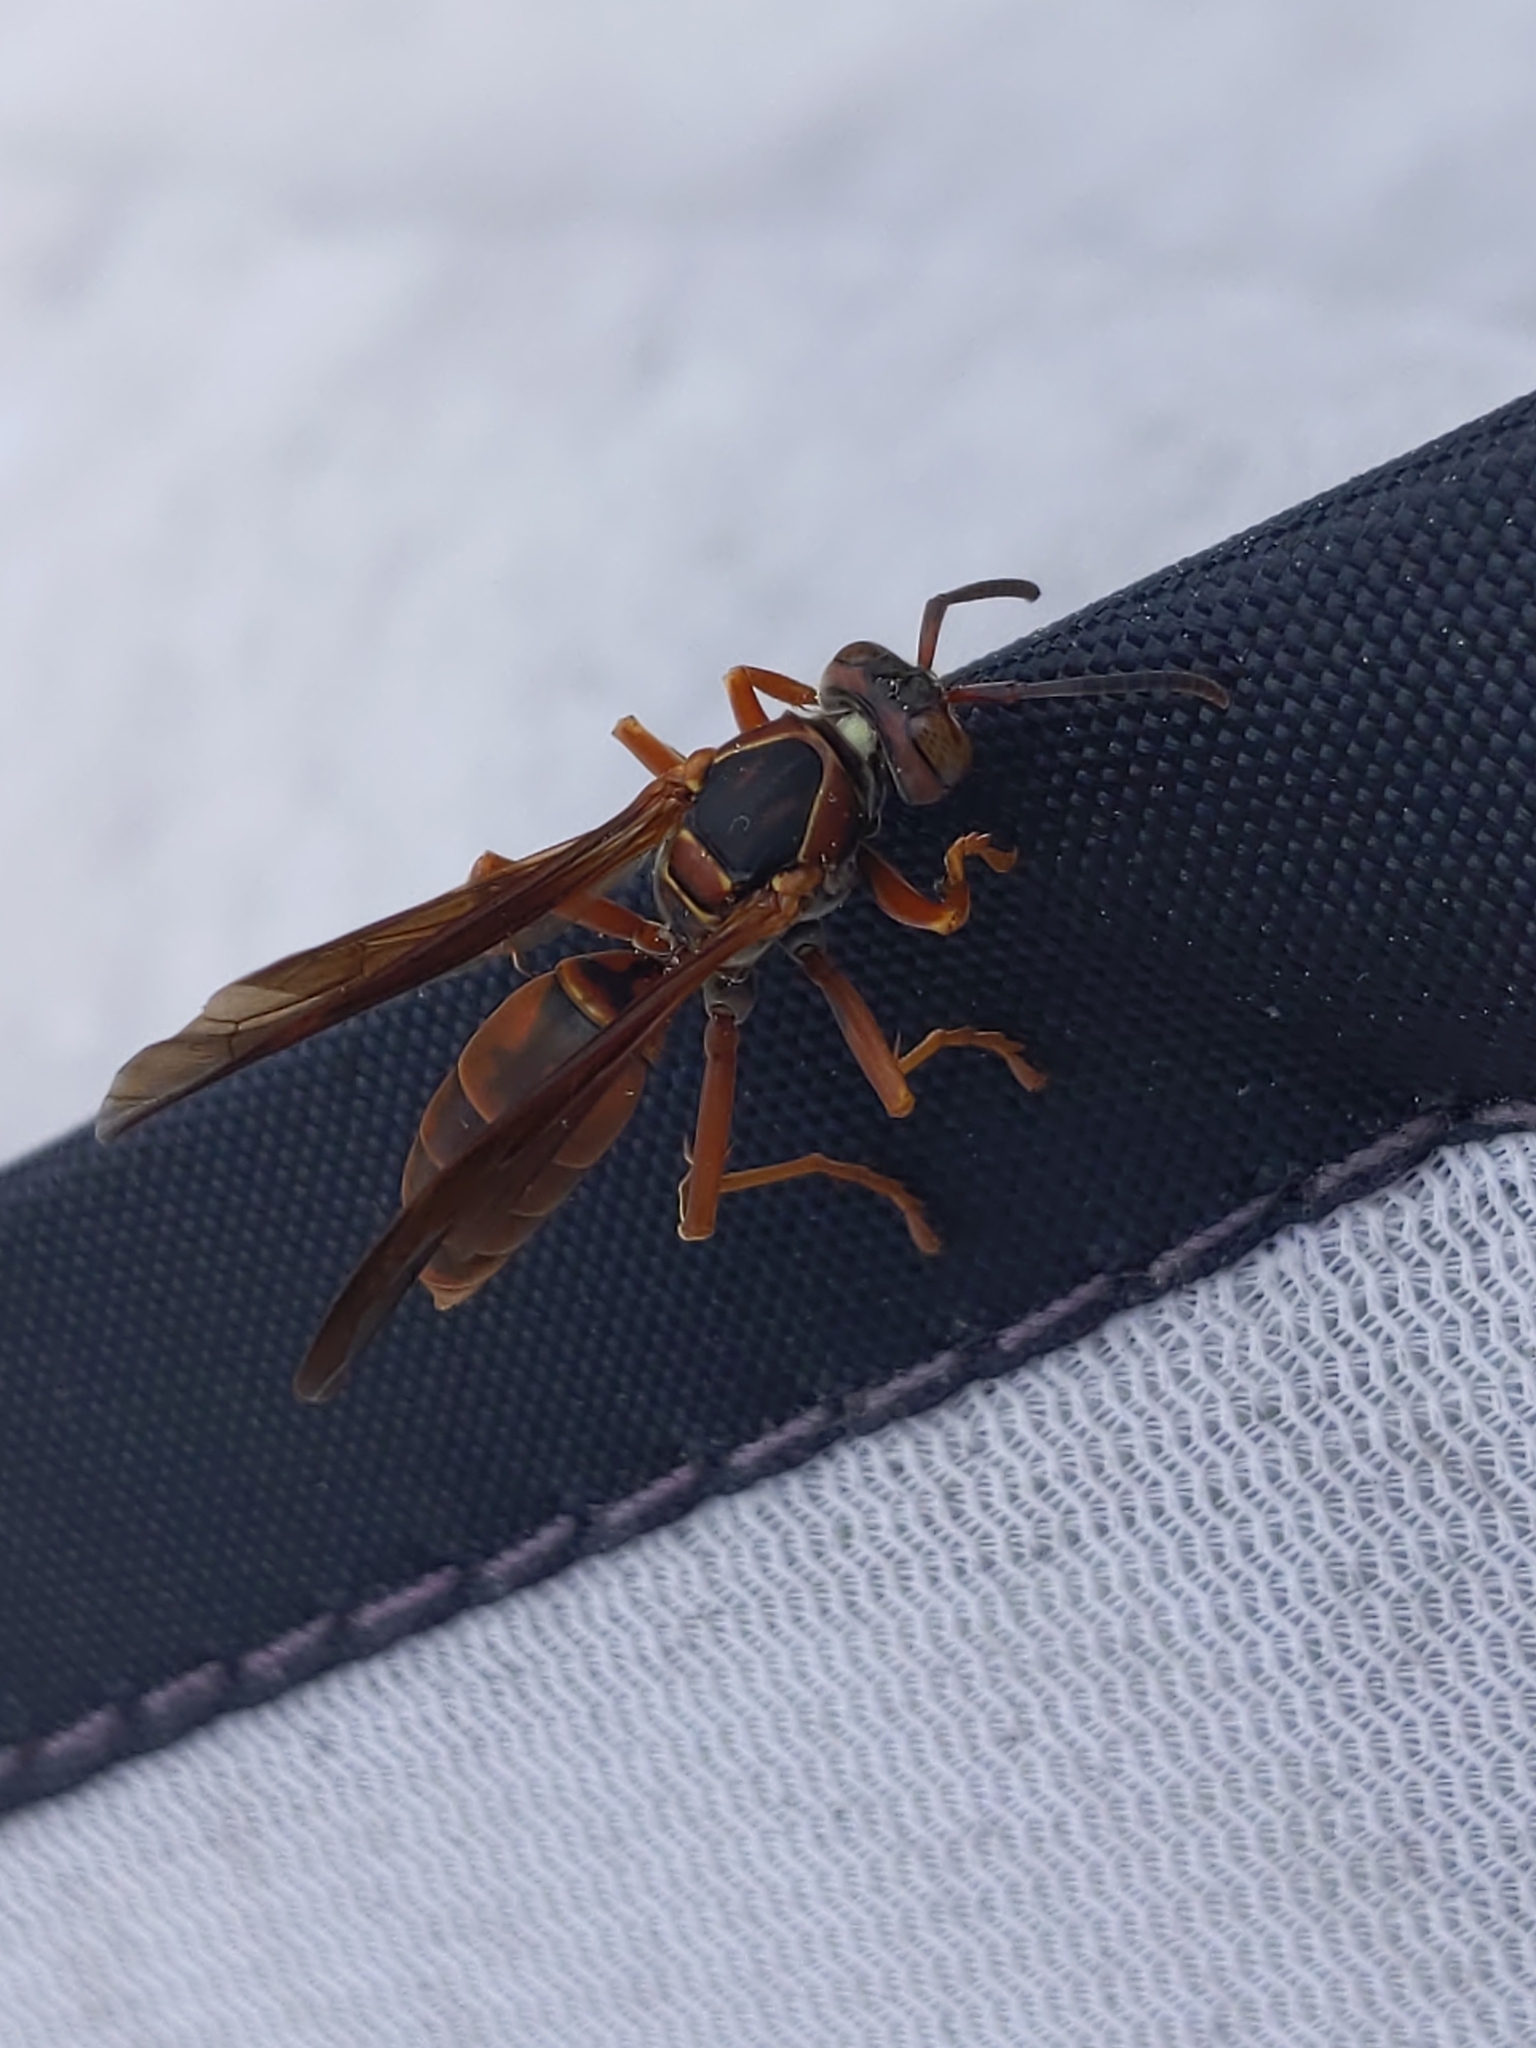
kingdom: Animalia
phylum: Arthropoda
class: Insecta
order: Hymenoptera
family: Vespidae
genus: Fuscopolistes
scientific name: Fuscopolistes
